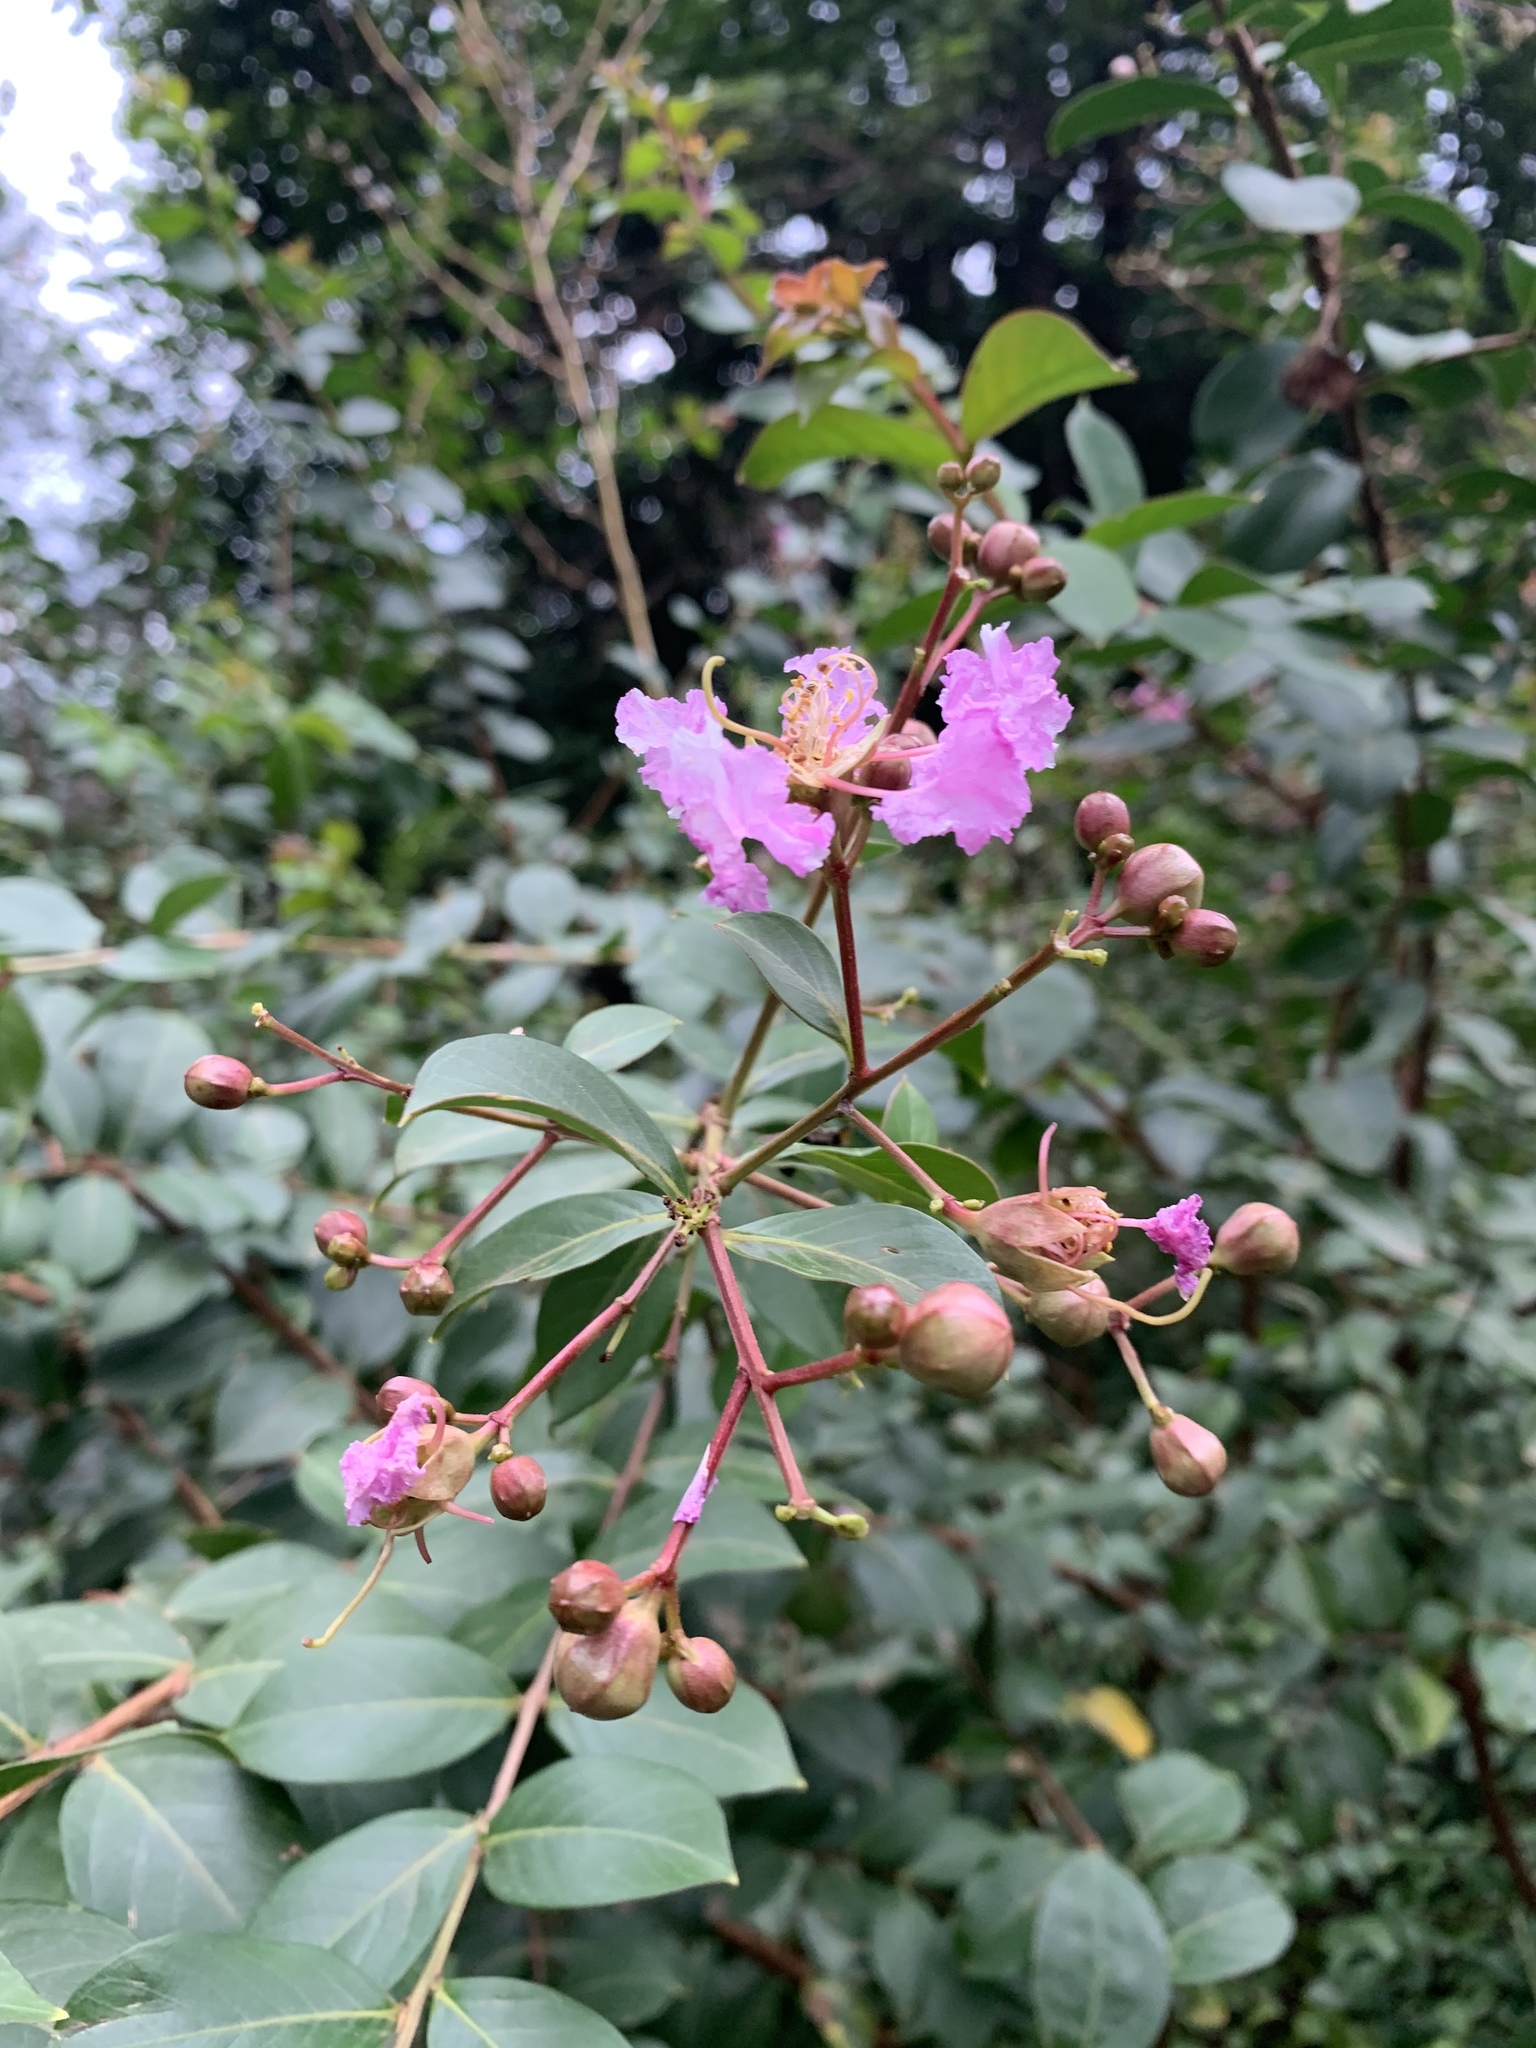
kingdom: Plantae
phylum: Tracheophyta
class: Magnoliopsida
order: Myrtales
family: Lythraceae
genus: Lagerstroemia
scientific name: Lagerstroemia indica
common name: Crape-myrtle
